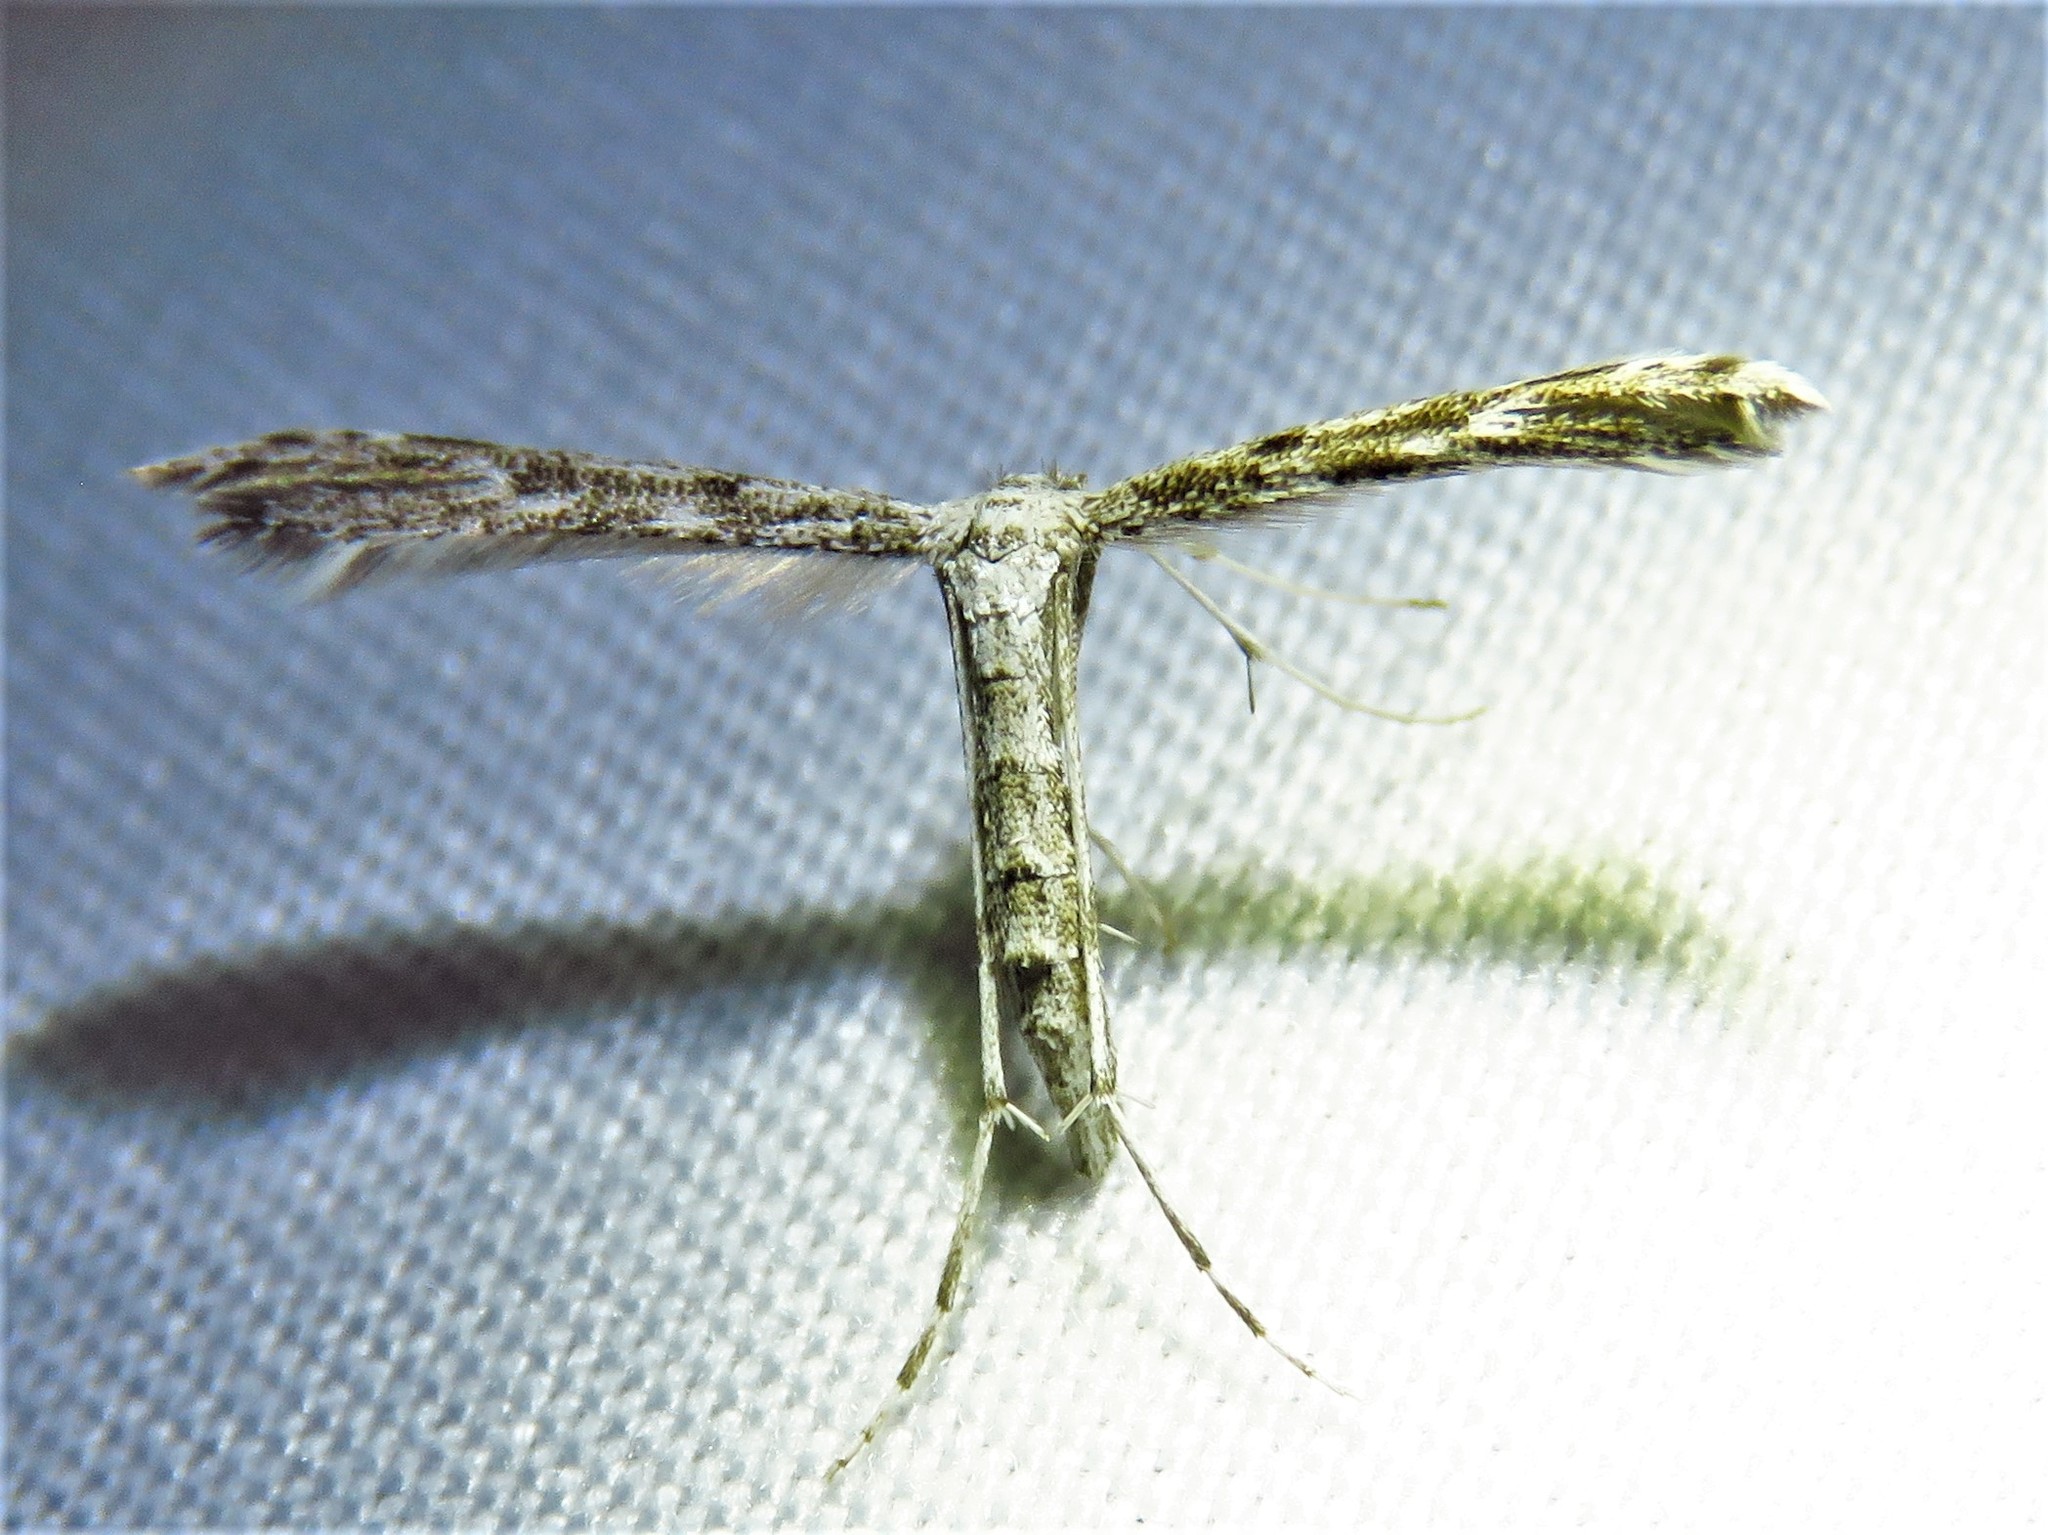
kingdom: Animalia
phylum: Arthropoda
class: Insecta
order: Lepidoptera
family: Pterophoridae
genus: Hellinsia
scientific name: Hellinsia inquinatus
